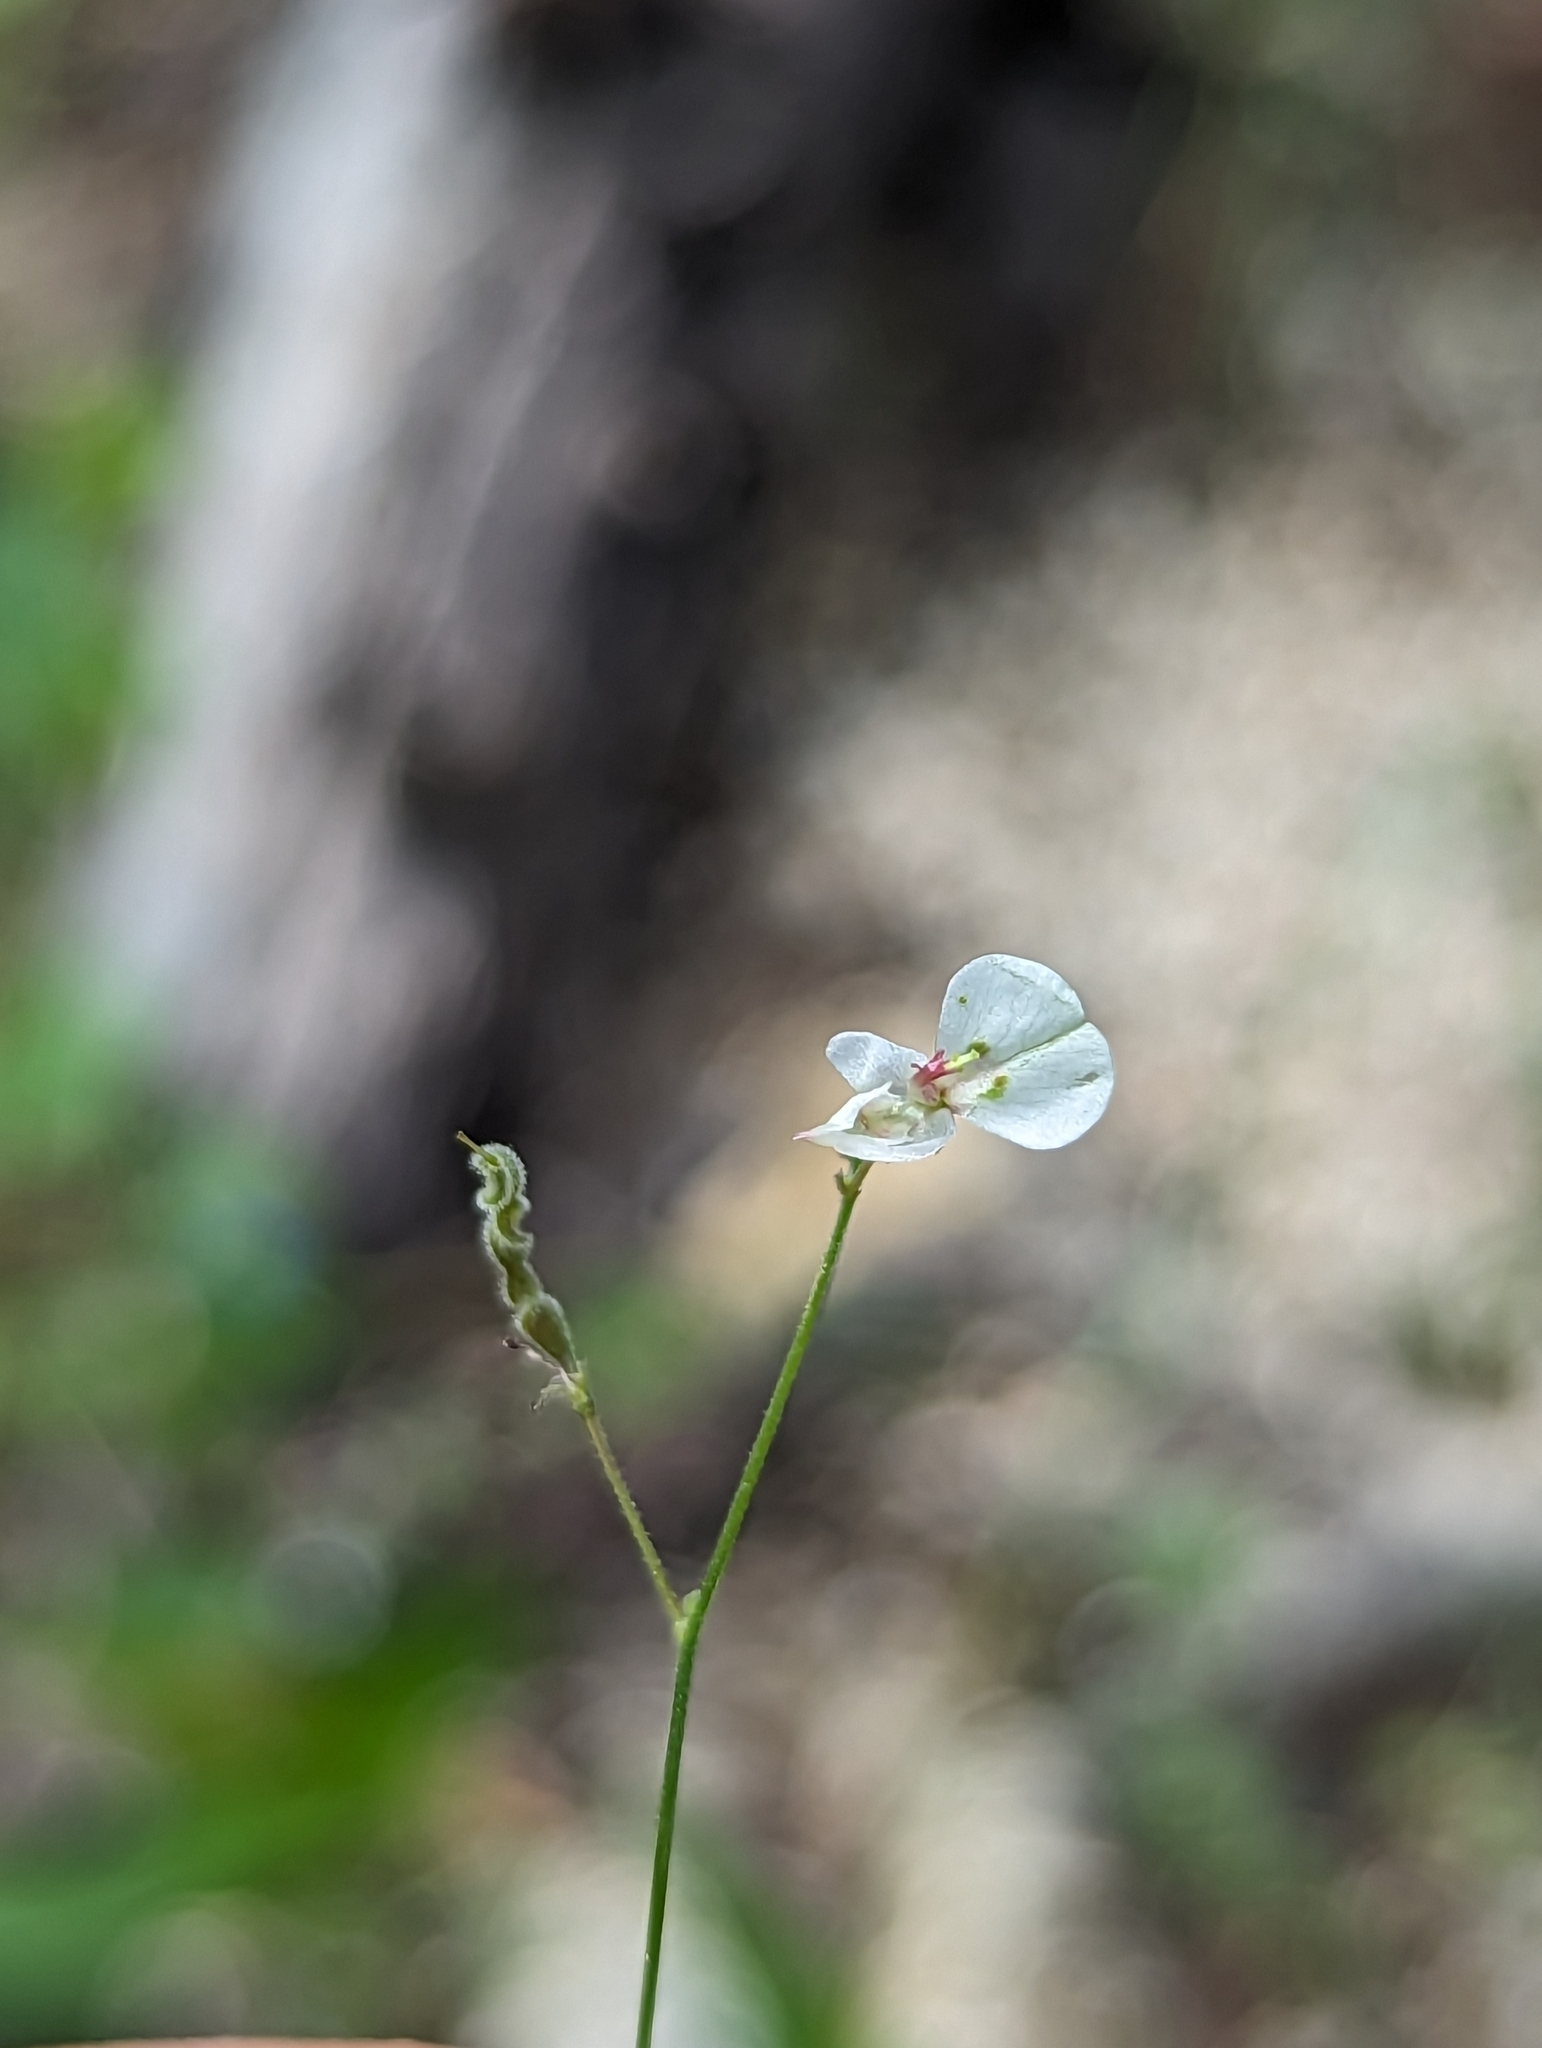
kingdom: Plantae
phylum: Tracheophyta
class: Magnoliopsida
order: Fabales
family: Fabaceae
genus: Desmodium
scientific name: Desmodium procumbens
